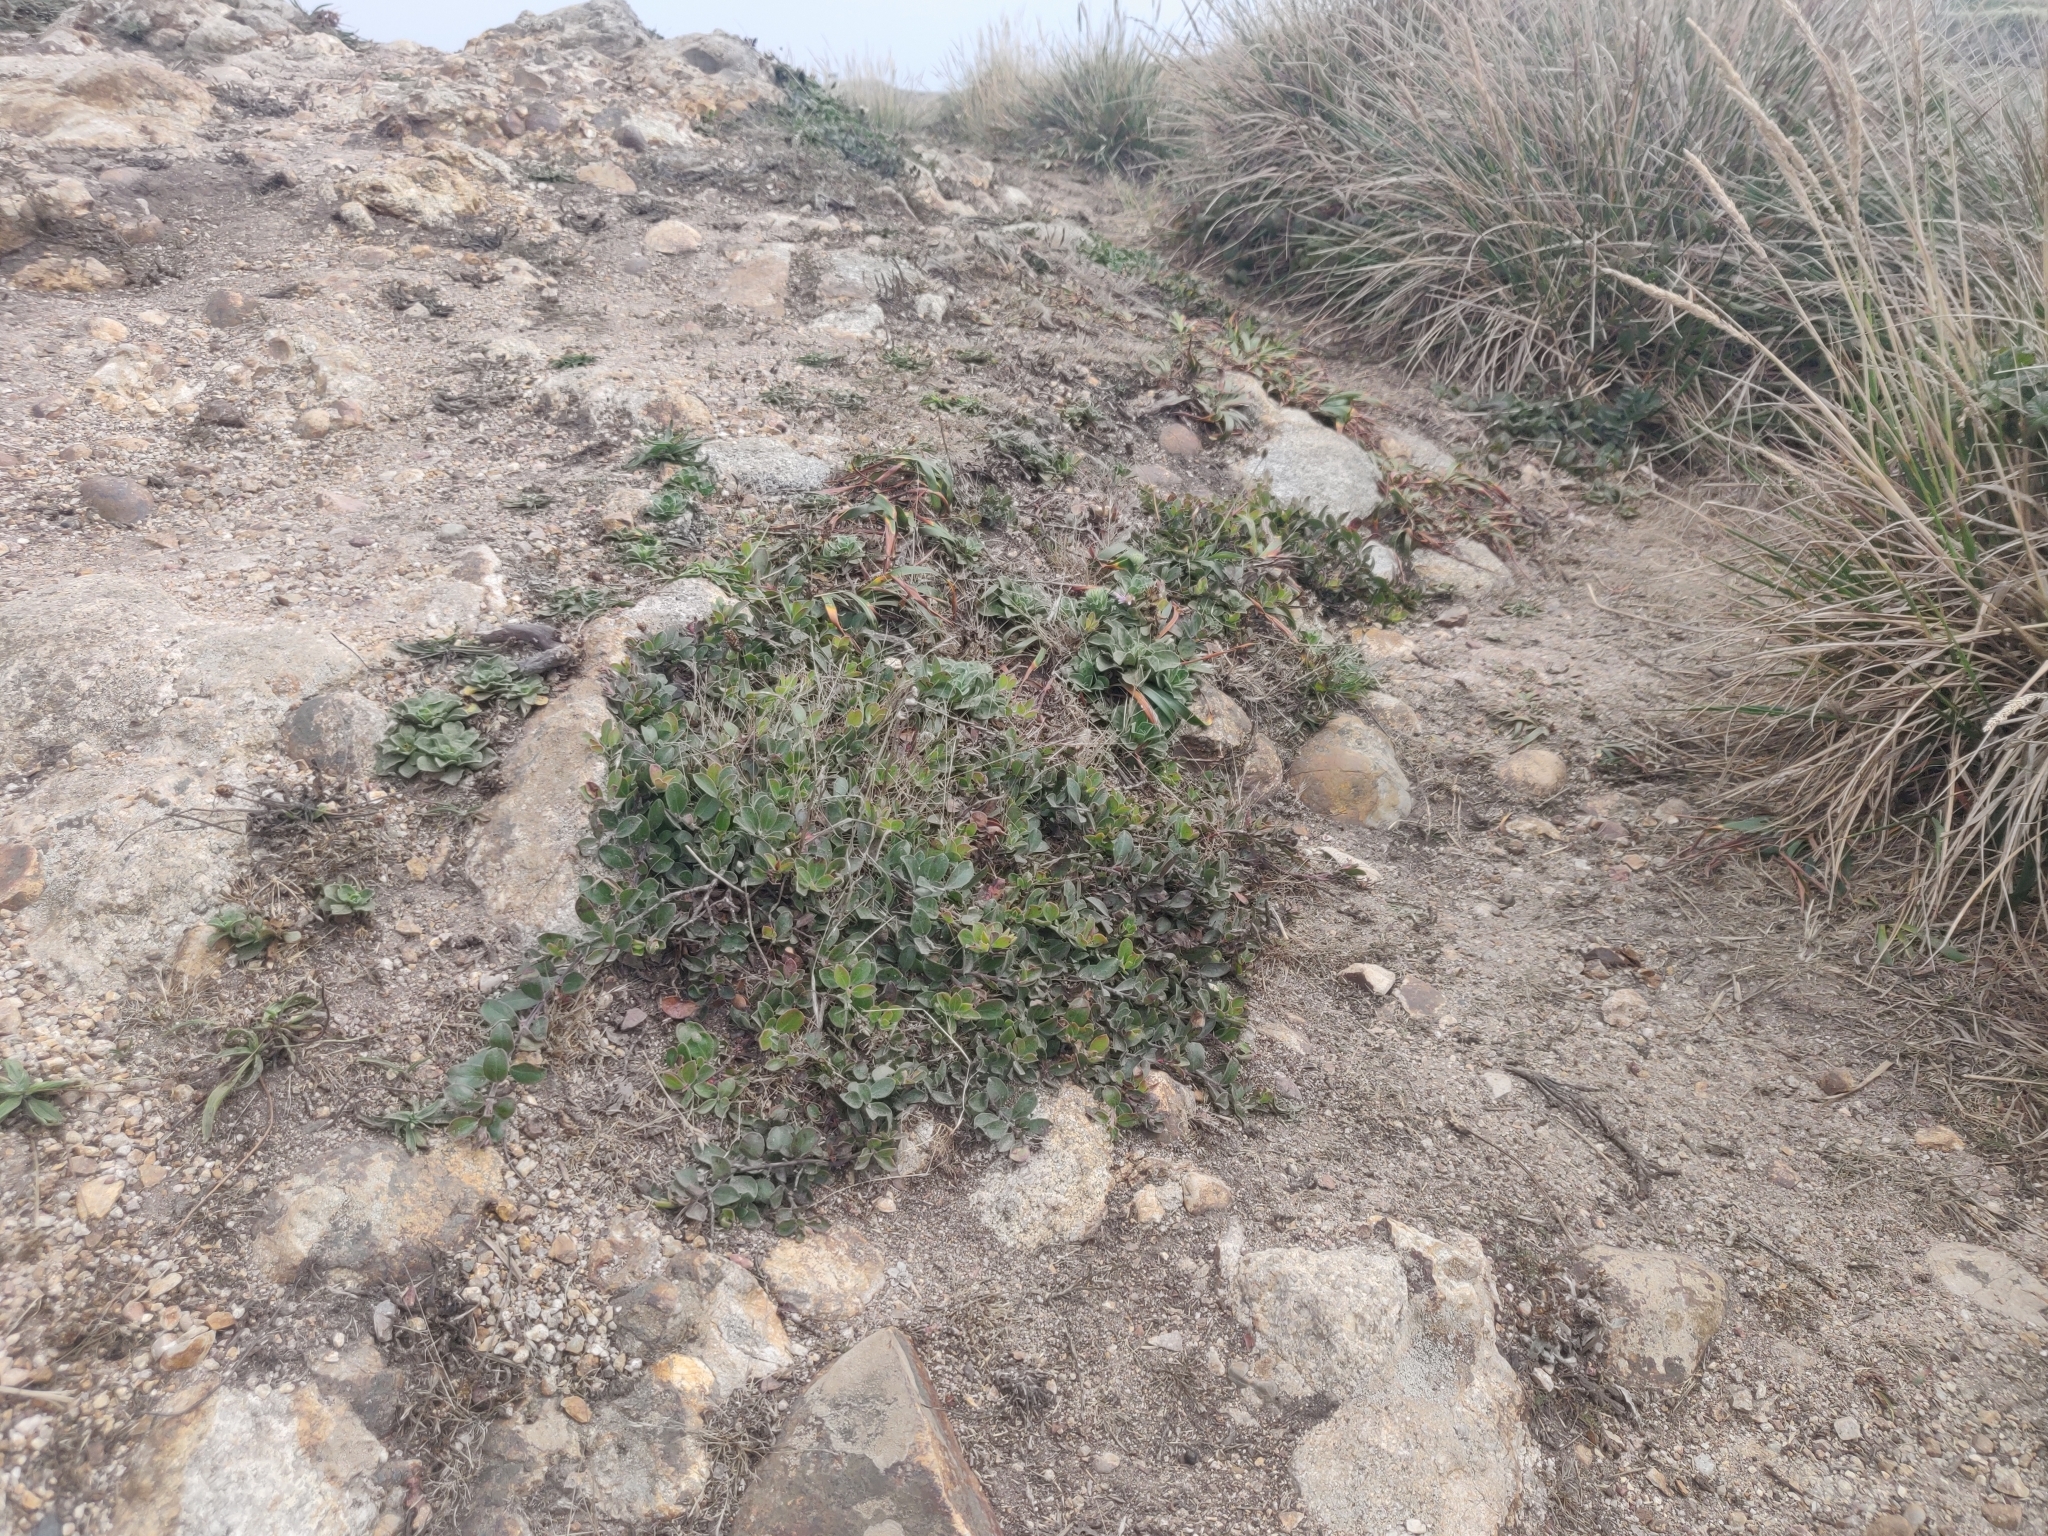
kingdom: Plantae
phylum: Tracheophyta
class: Magnoliopsida
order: Ericales
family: Ericaceae
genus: Arctostaphylos
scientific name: Arctostaphylos uva-ursi
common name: Bearberry
